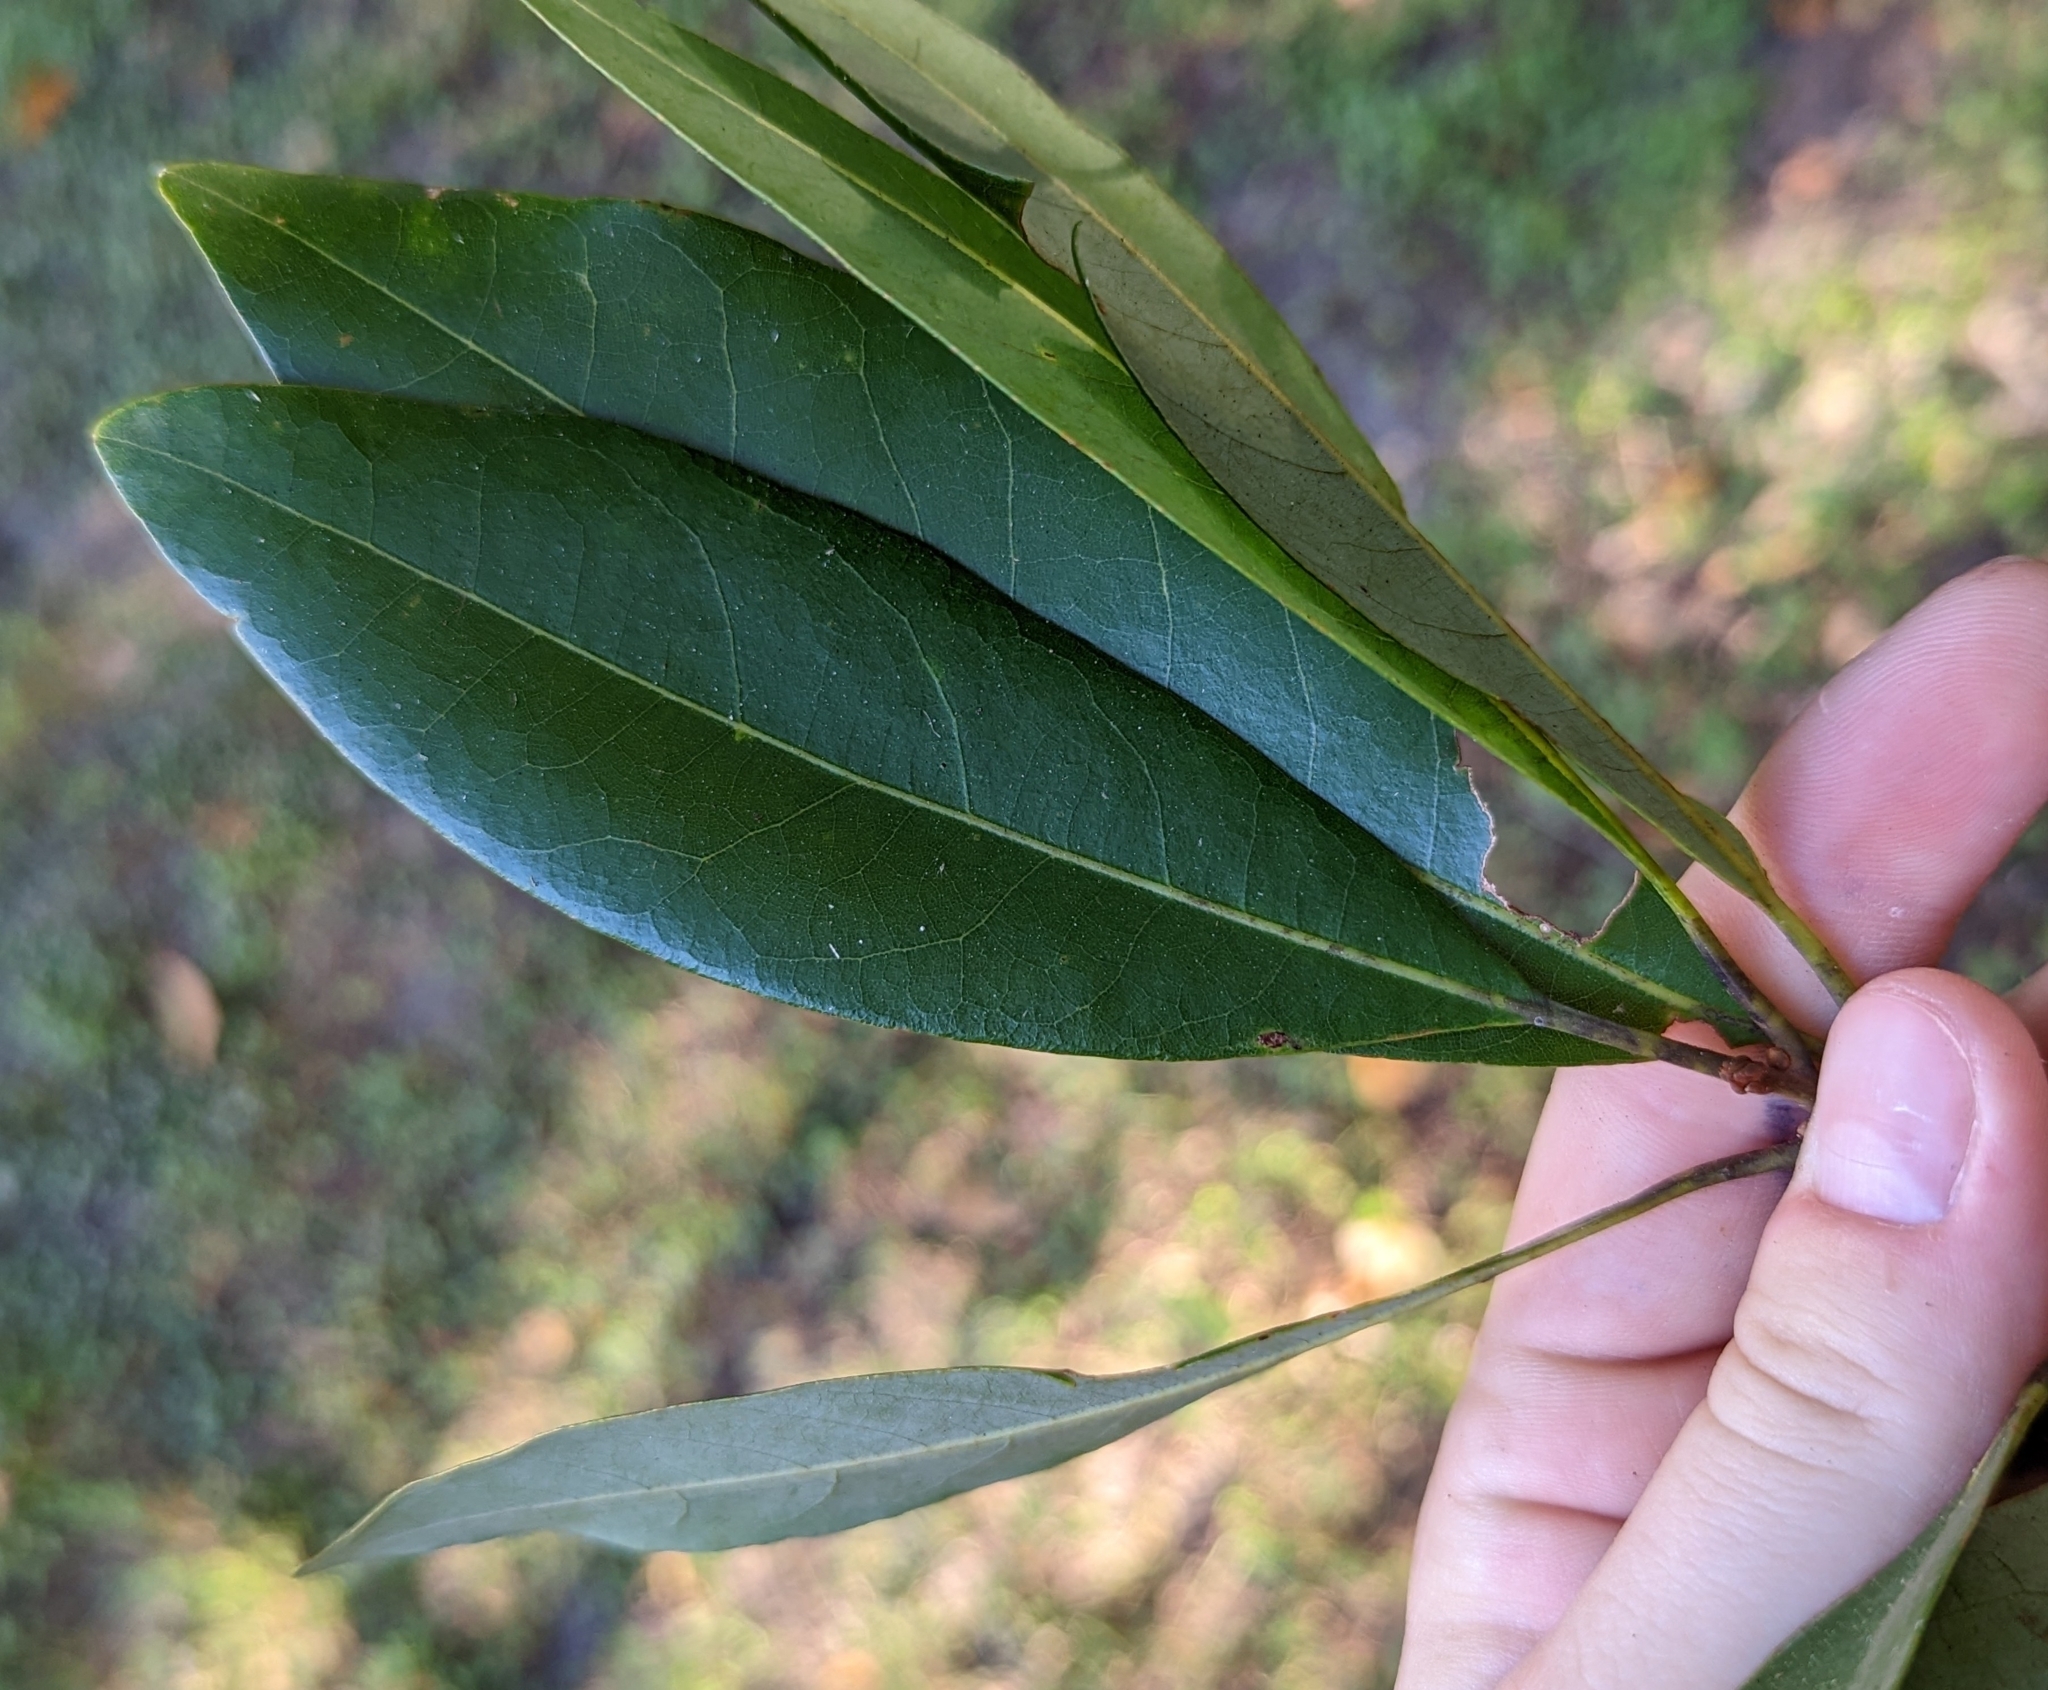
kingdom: Plantae
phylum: Tracheophyta
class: Magnoliopsida
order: Laurales
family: Lauraceae
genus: Persea
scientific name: Persea borbonia
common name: Redbay
